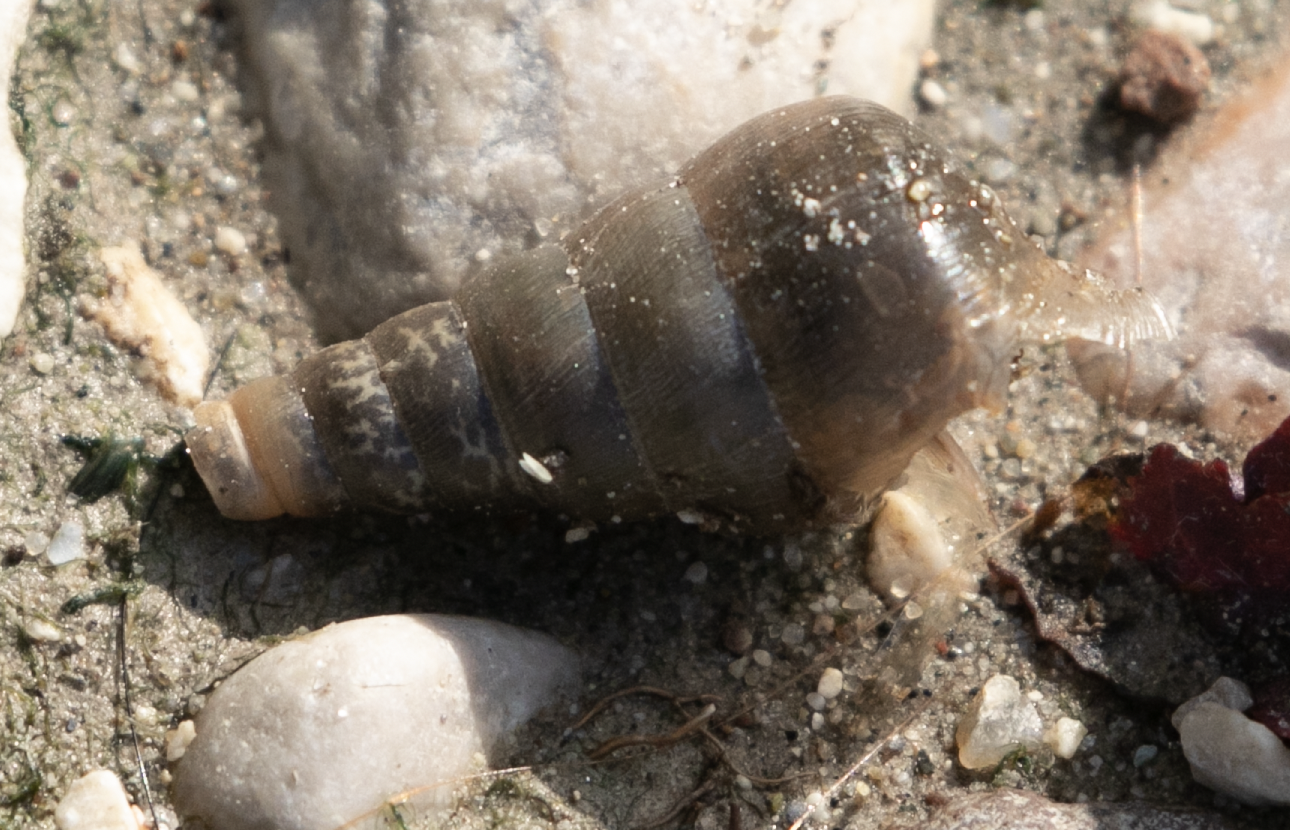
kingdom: Animalia
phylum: Mollusca
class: Gastropoda
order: Stylommatophora
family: Achatinidae
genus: Rumina
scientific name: Rumina decollata
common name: Decollate snail
